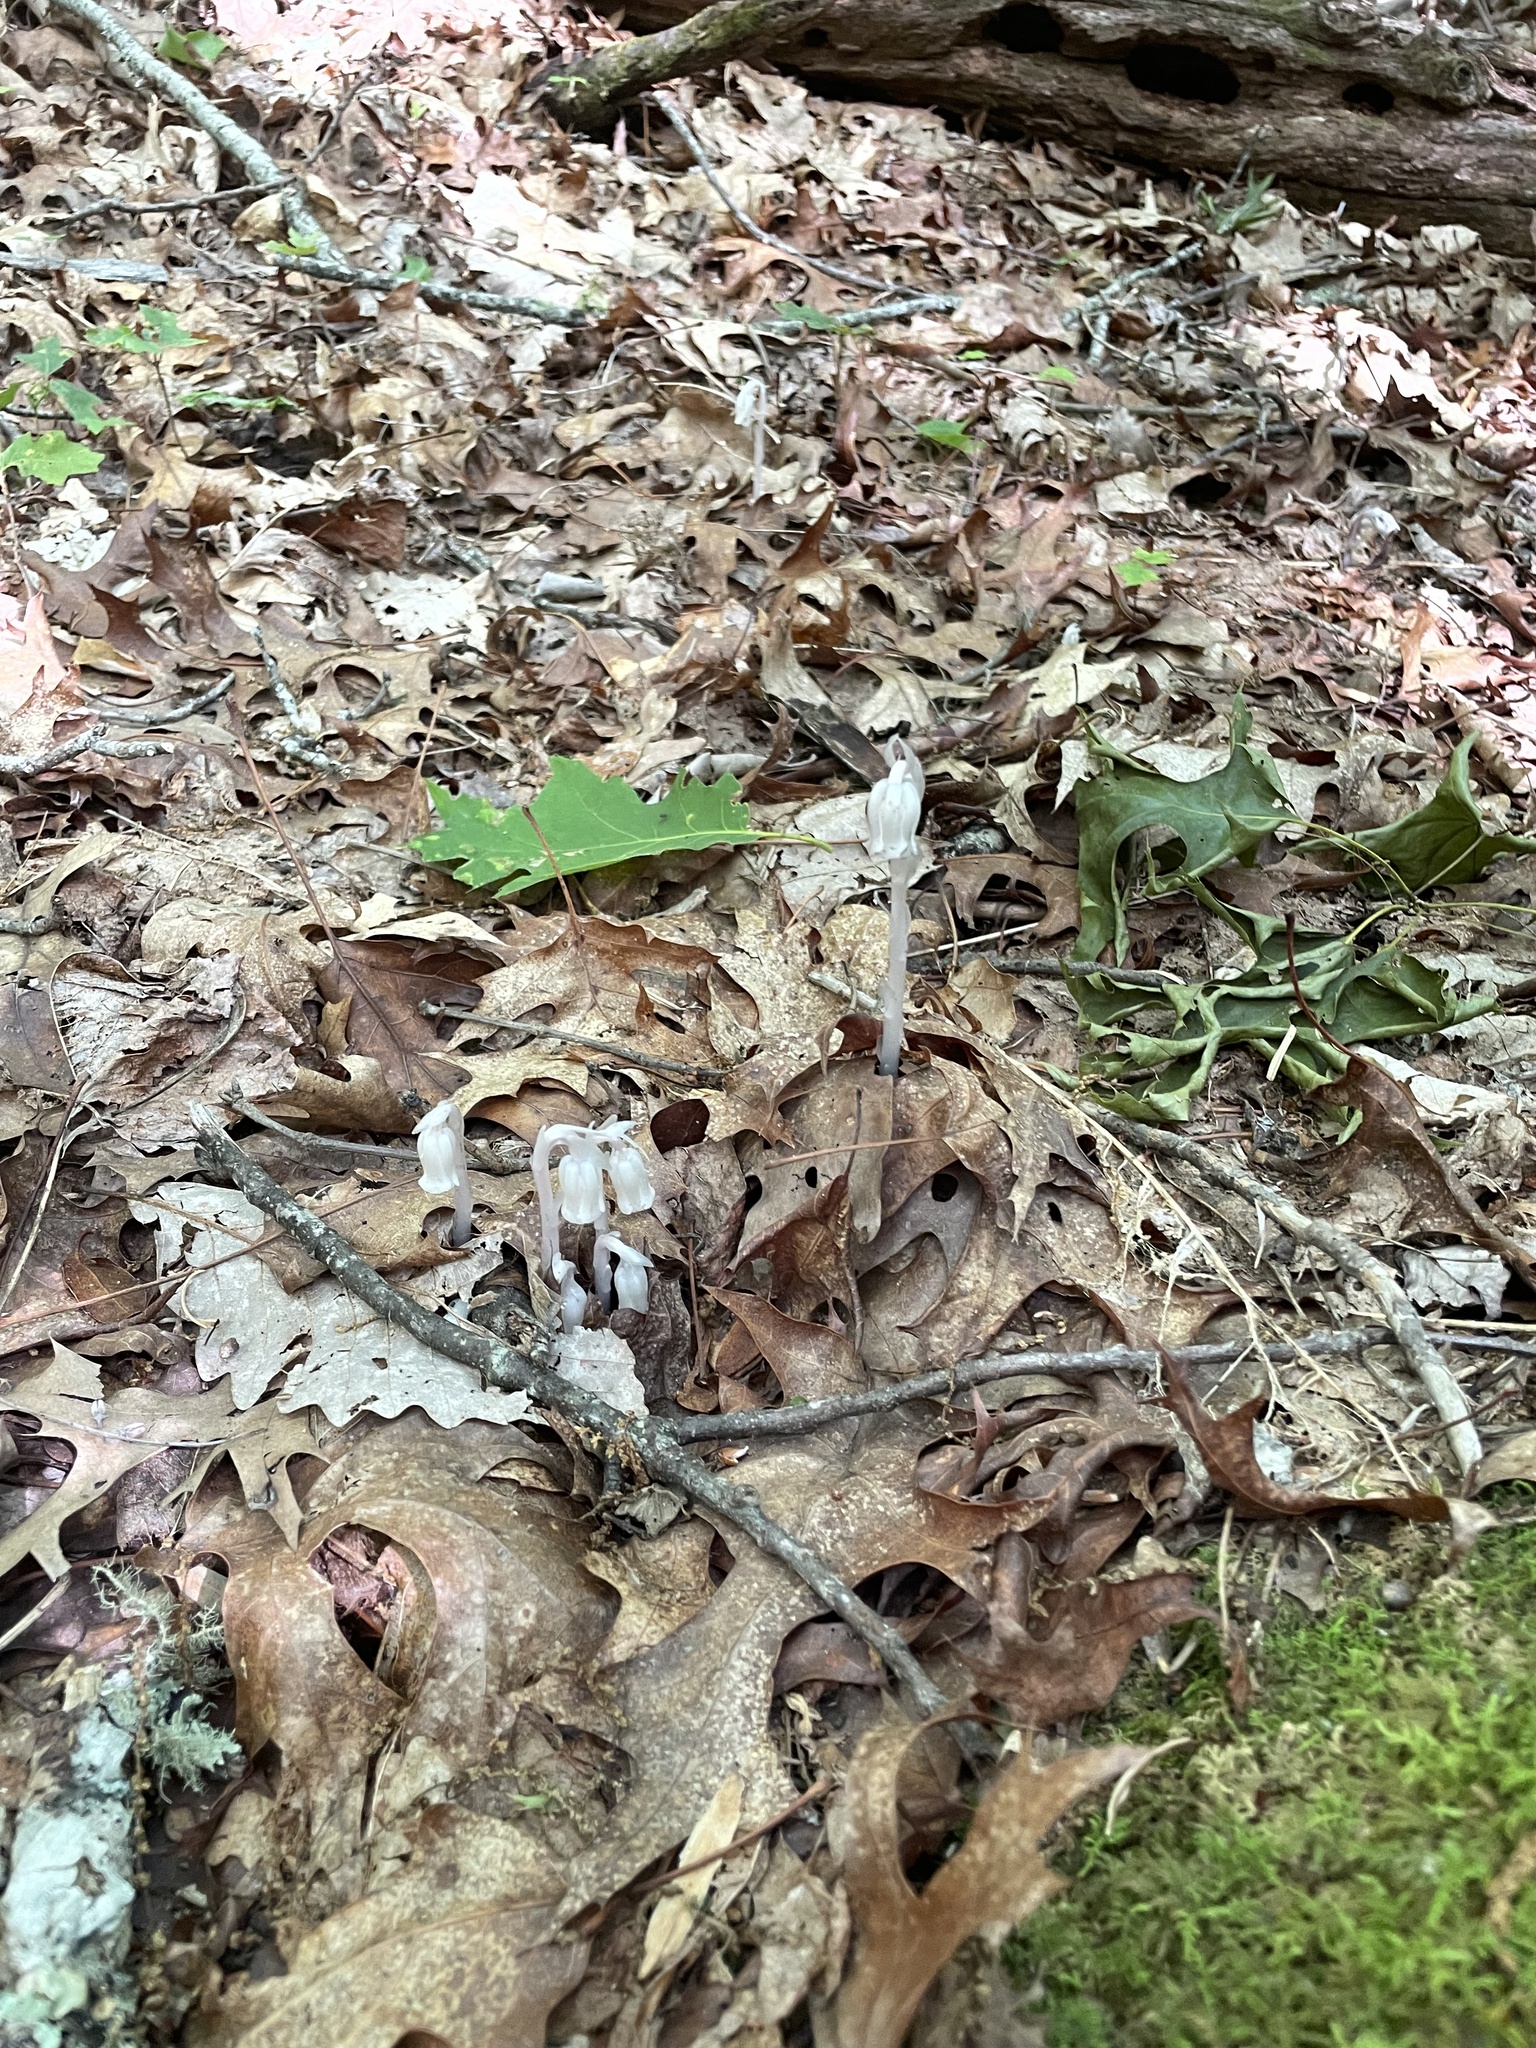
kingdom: Plantae
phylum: Tracheophyta
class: Magnoliopsida
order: Ericales
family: Ericaceae
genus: Monotropa
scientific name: Monotropa uniflora
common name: Convulsion root
